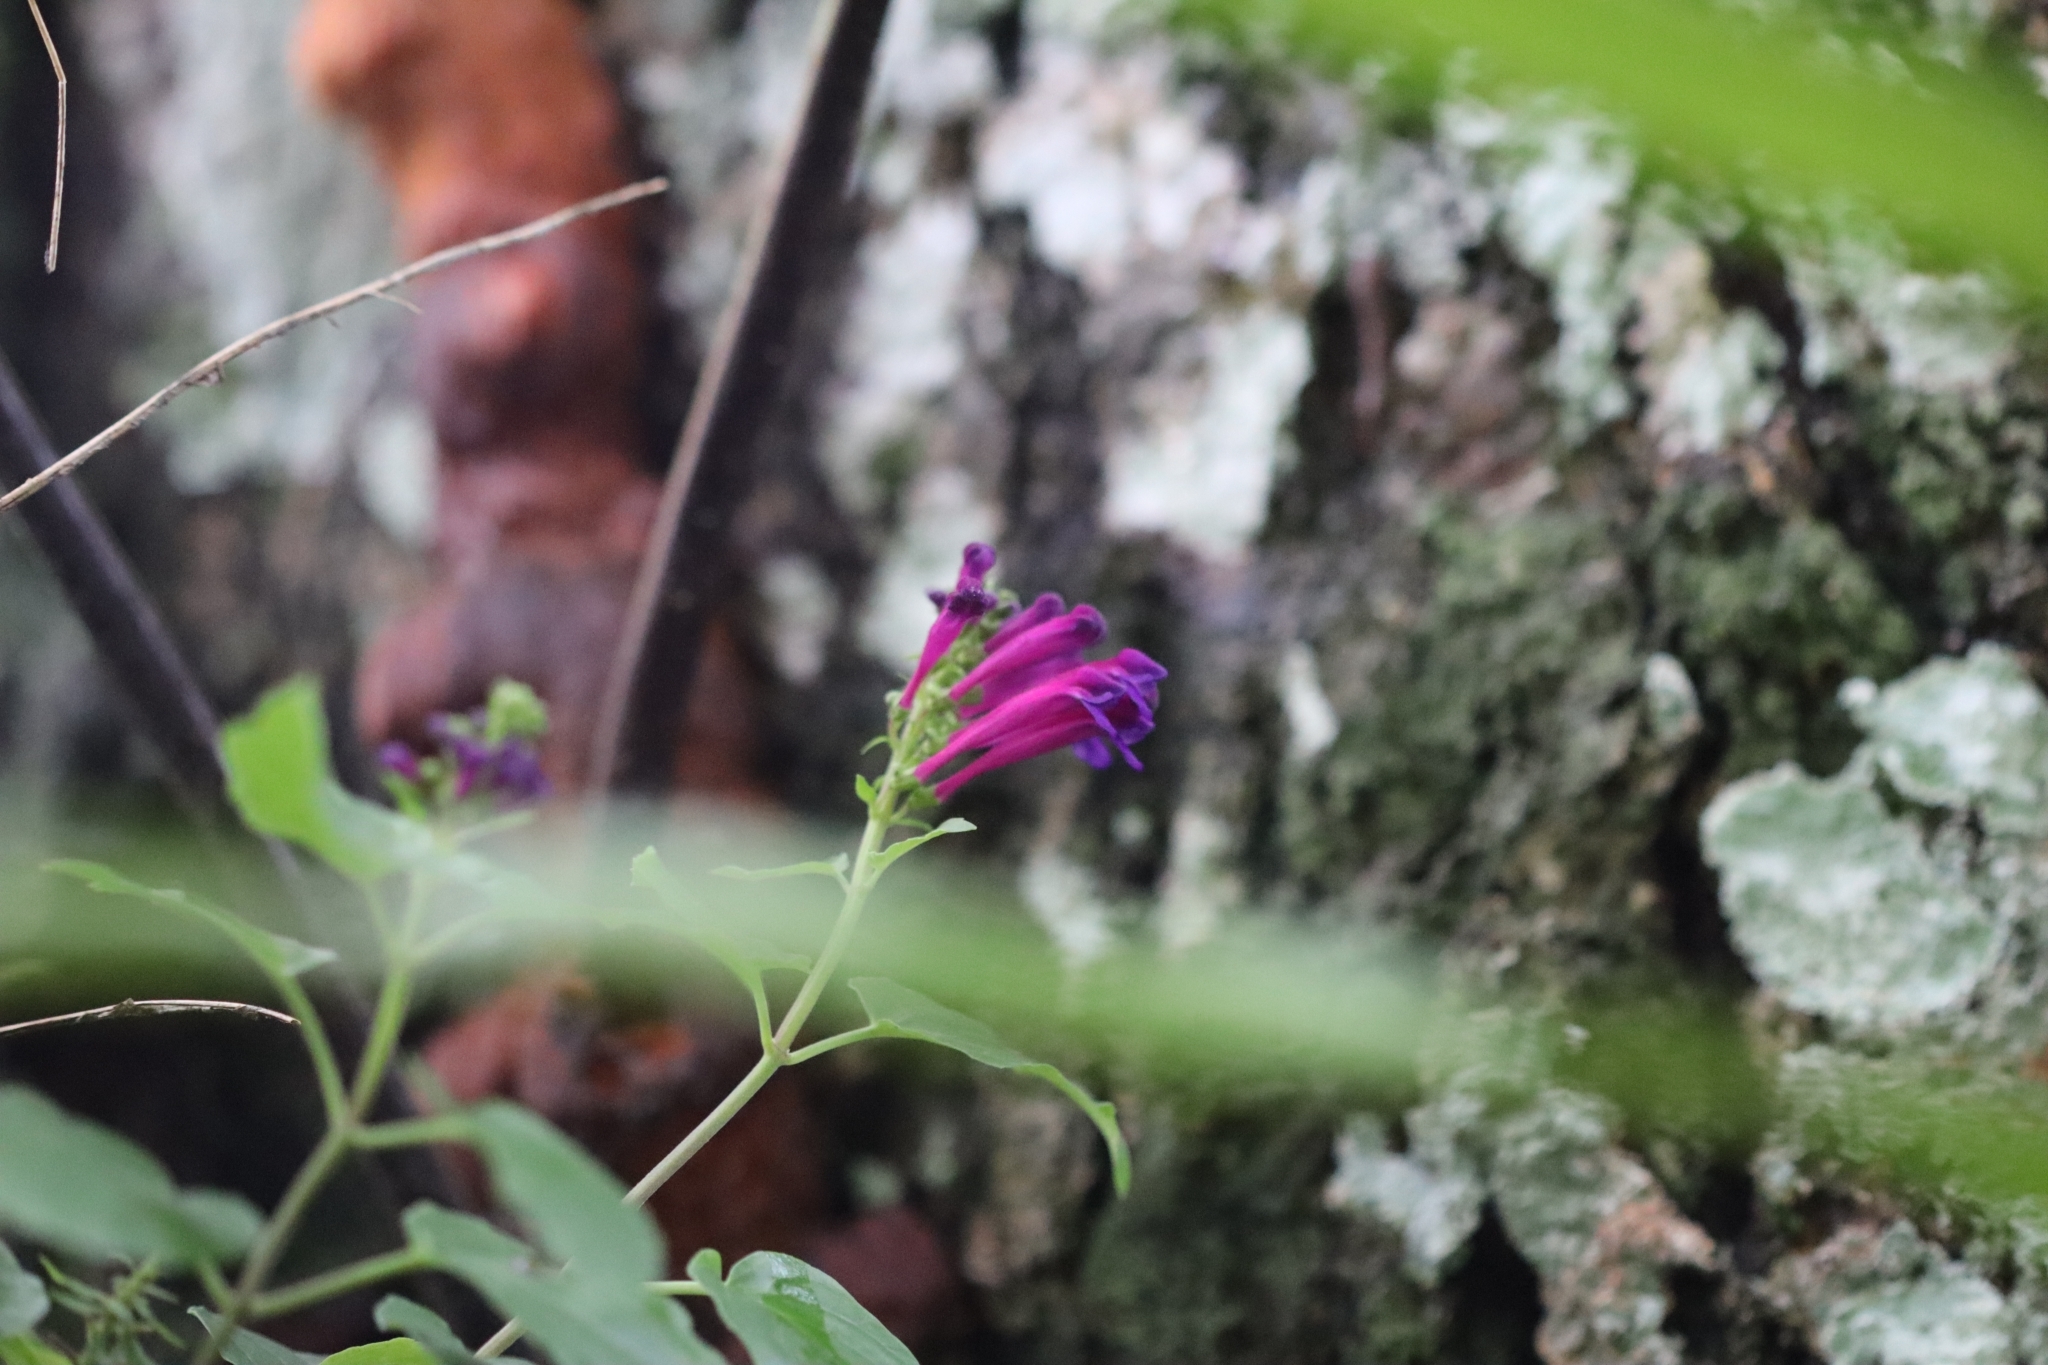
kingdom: Plantae
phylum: Tracheophyta
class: Magnoliopsida
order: Lamiales
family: Lamiaceae
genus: Scutellaria
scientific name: Scutellaria incarnata
